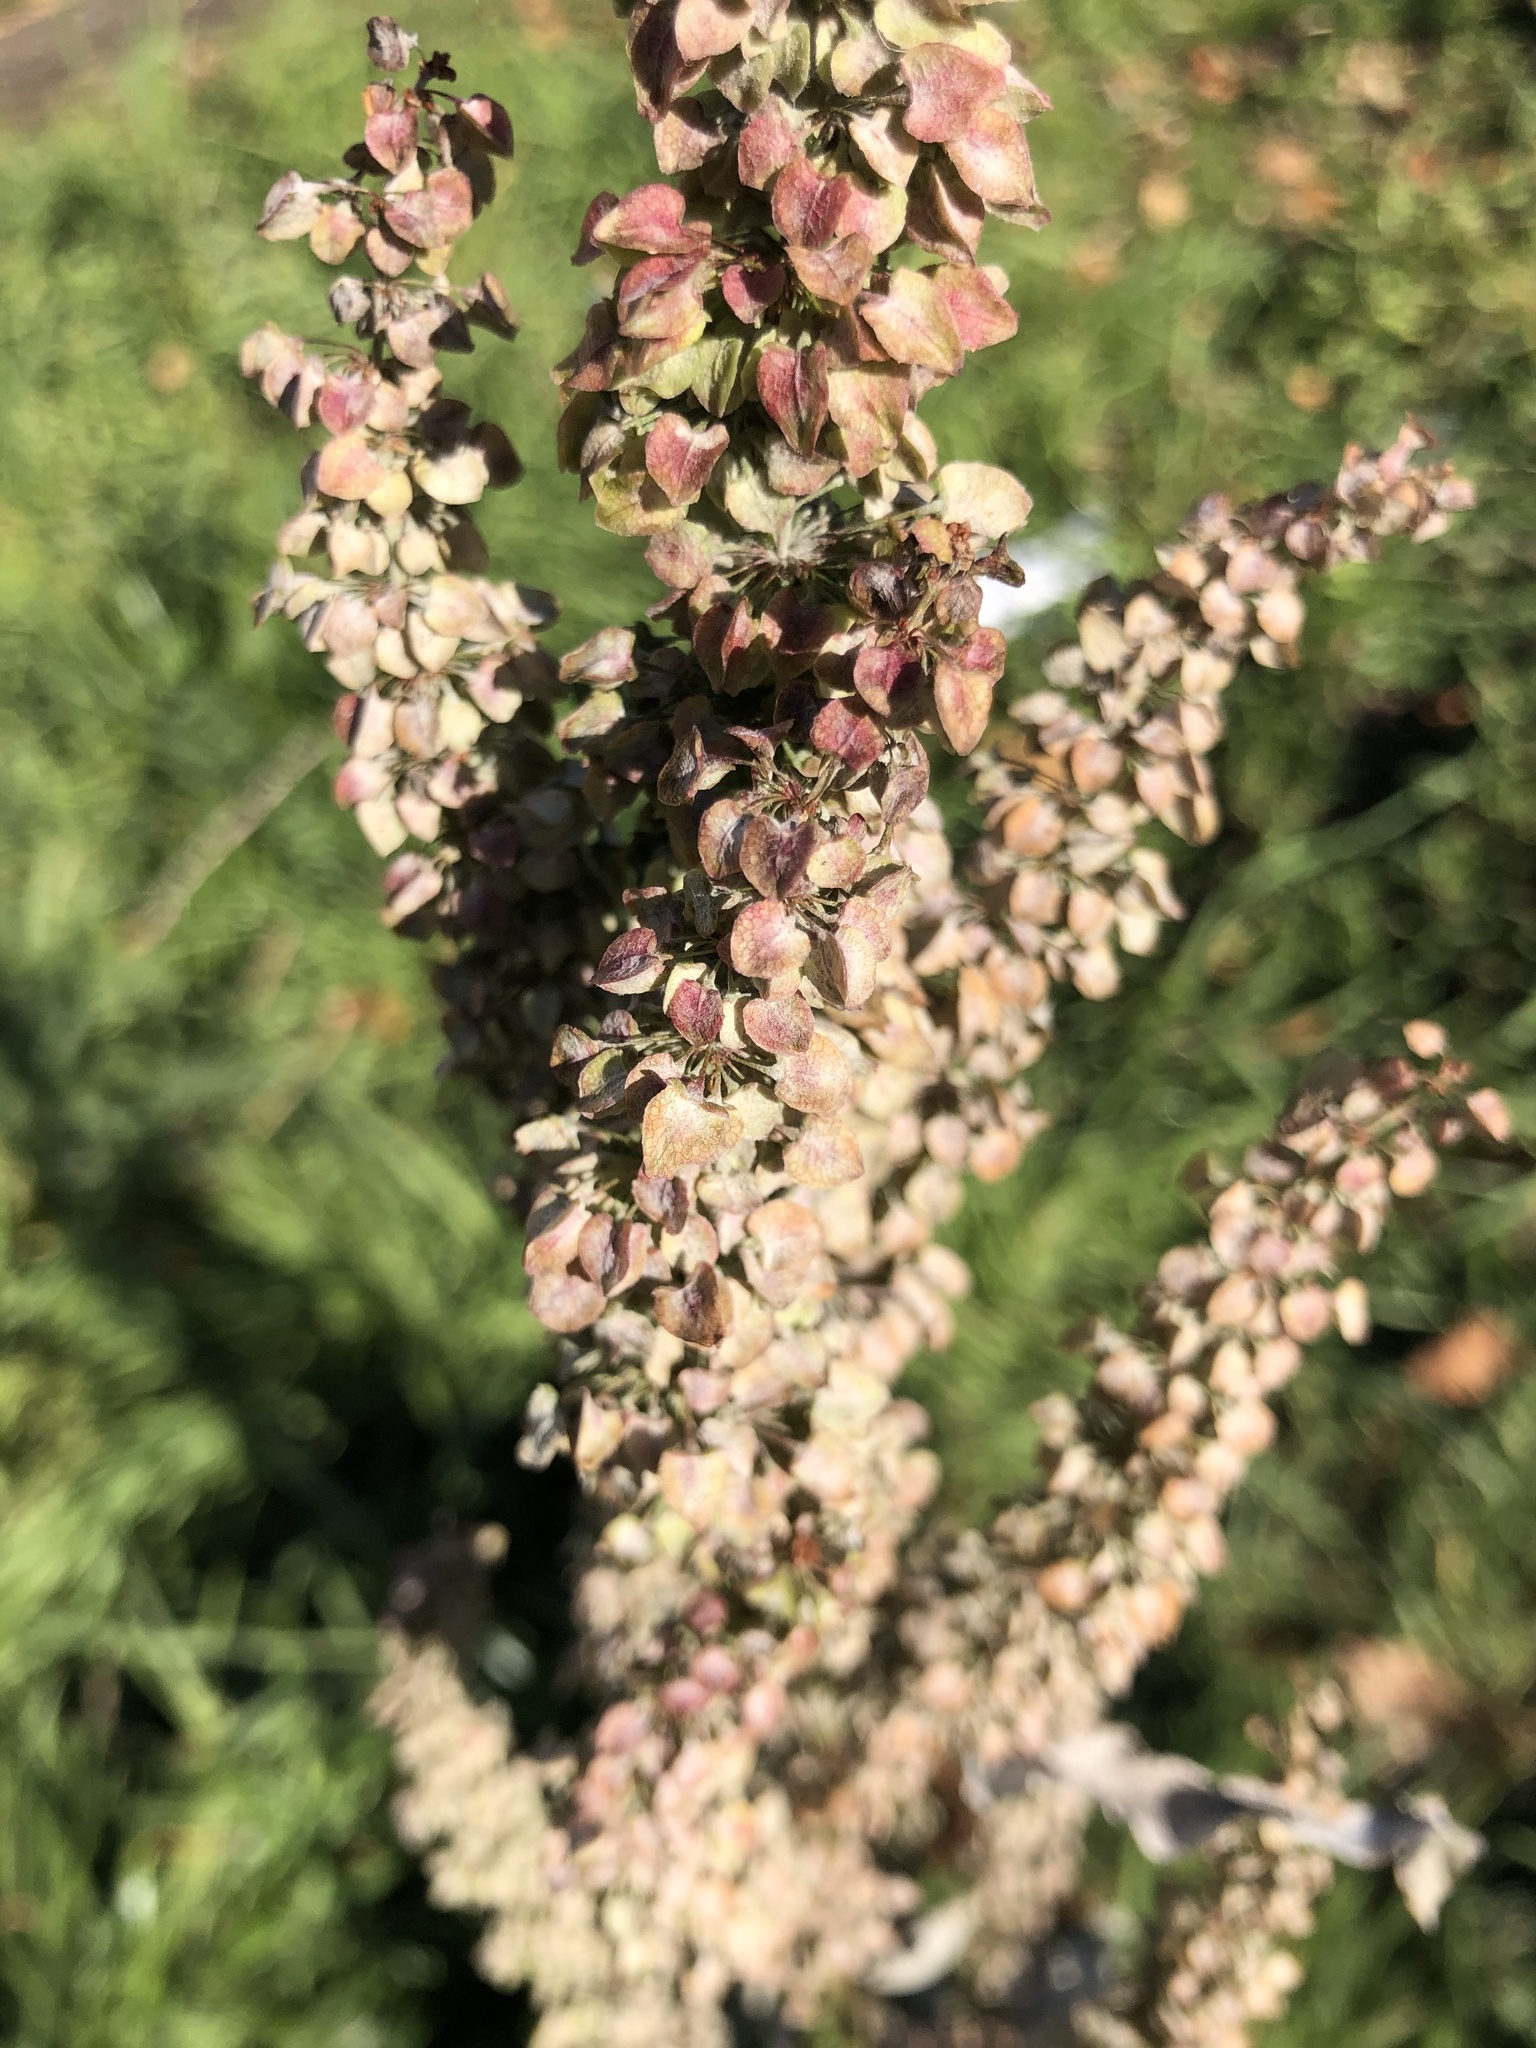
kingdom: Plantae
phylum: Tracheophyta
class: Magnoliopsida
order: Caryophyllales
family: Polygonaceae
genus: Rumex
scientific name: Rumex pseudonatronatus
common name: Field dock
